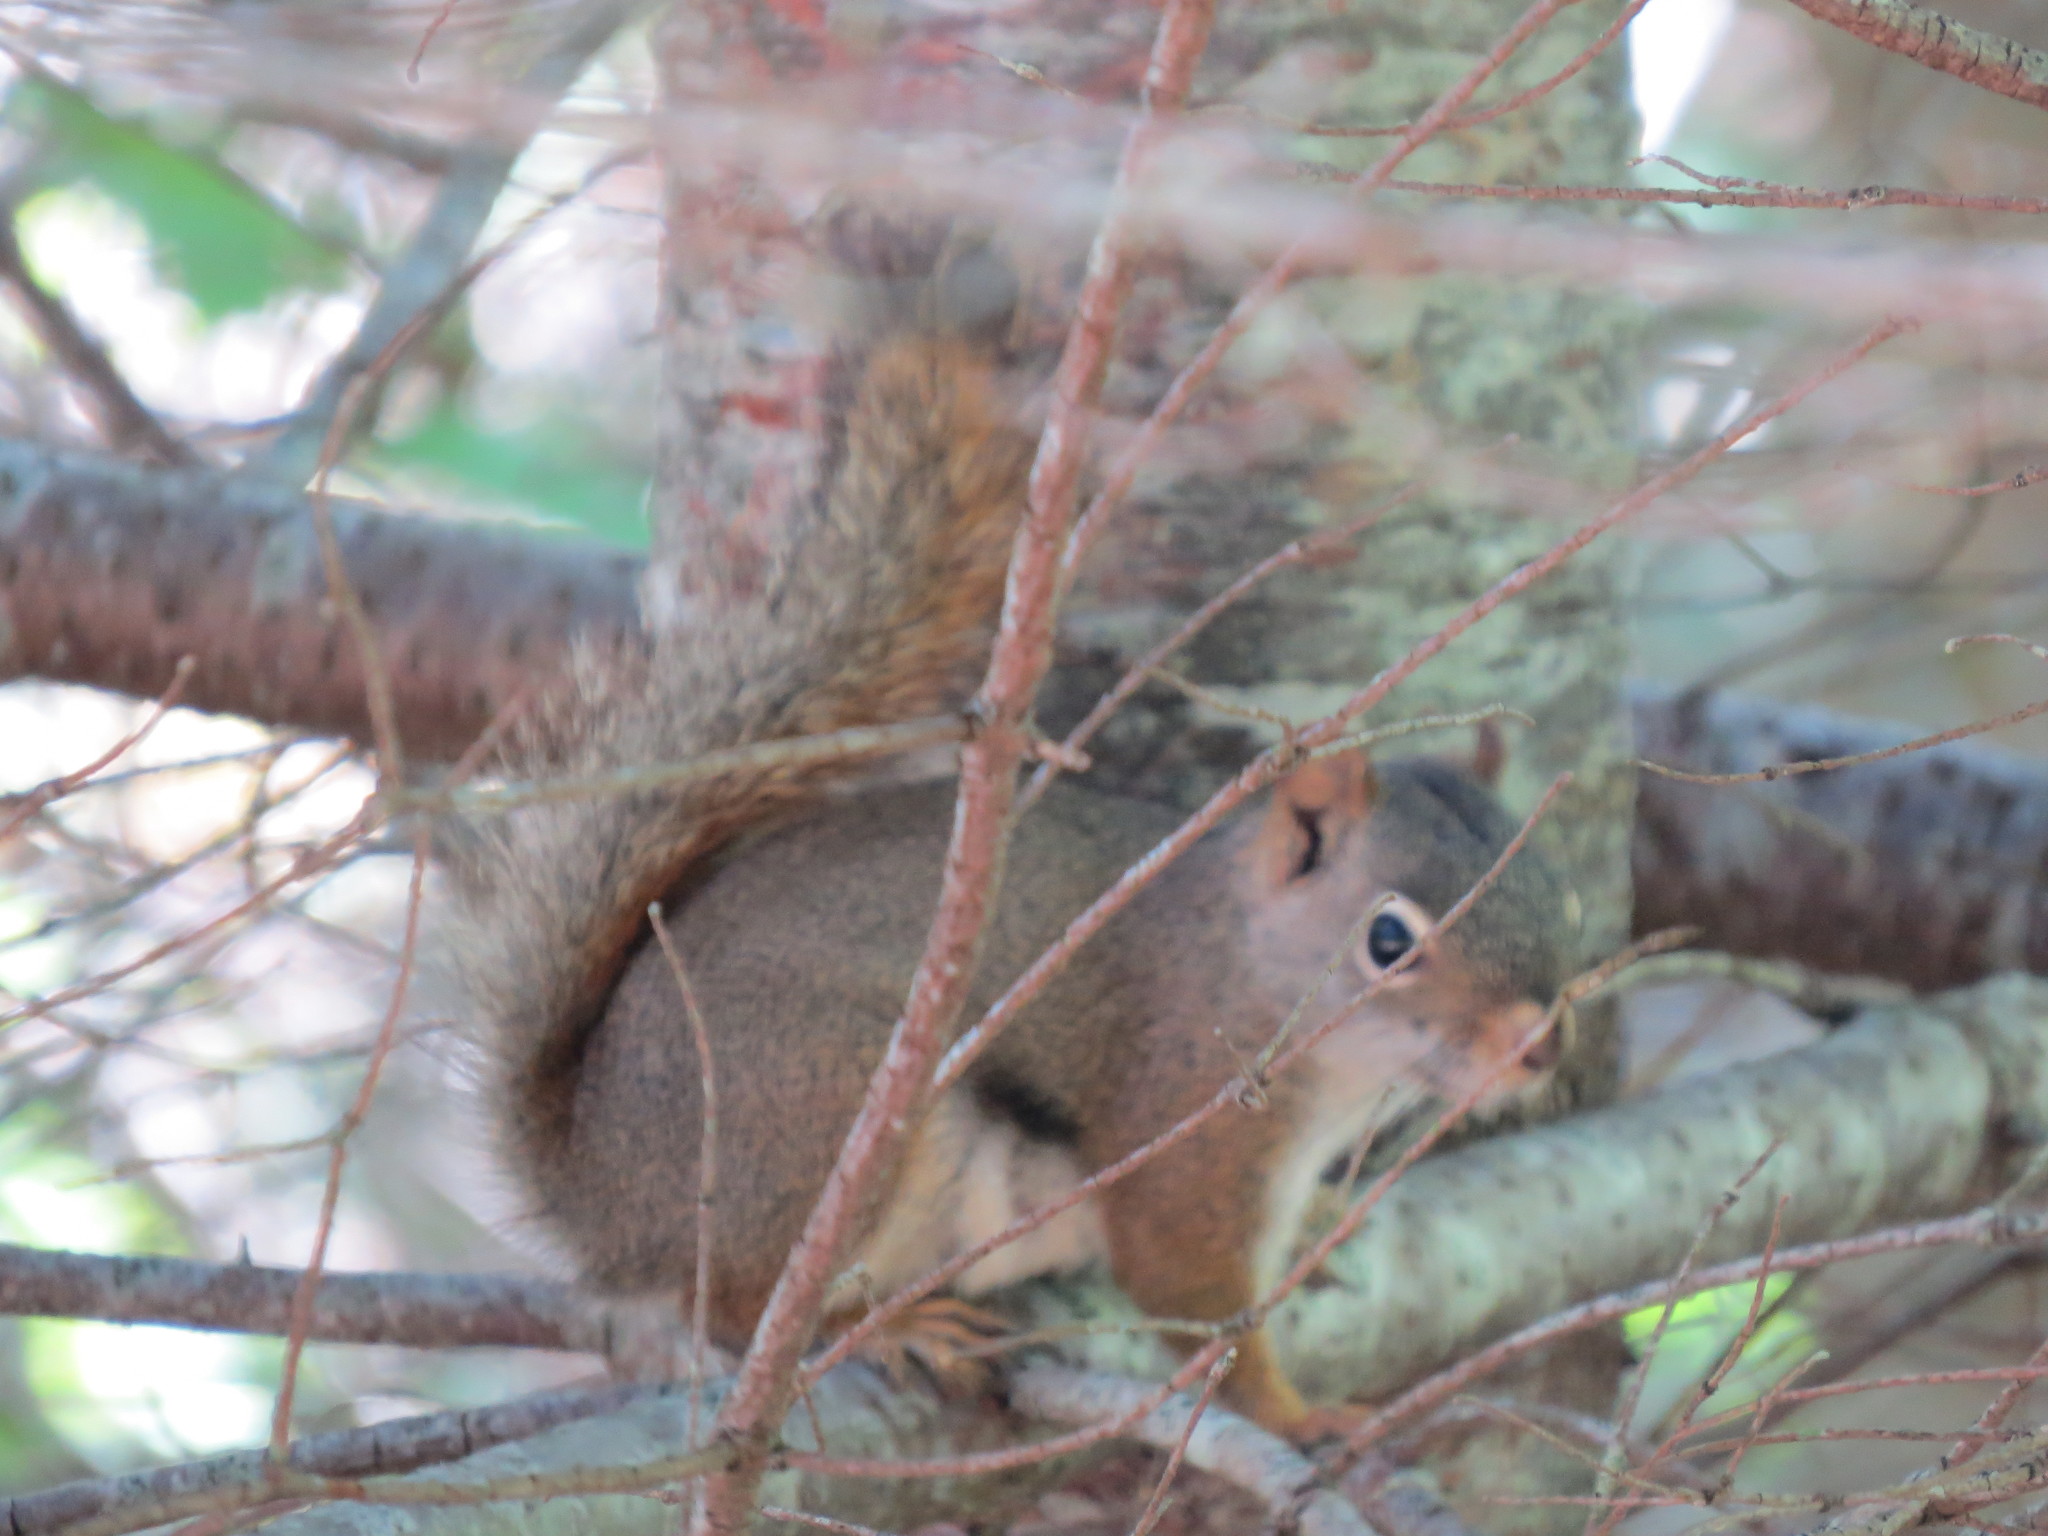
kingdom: Animalia
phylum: Chordata
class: Mammalia
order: Rodentia
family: Sciuridae
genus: Tamiasciurus
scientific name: Tamiasciurus hudsonicus
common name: Red squirrel
